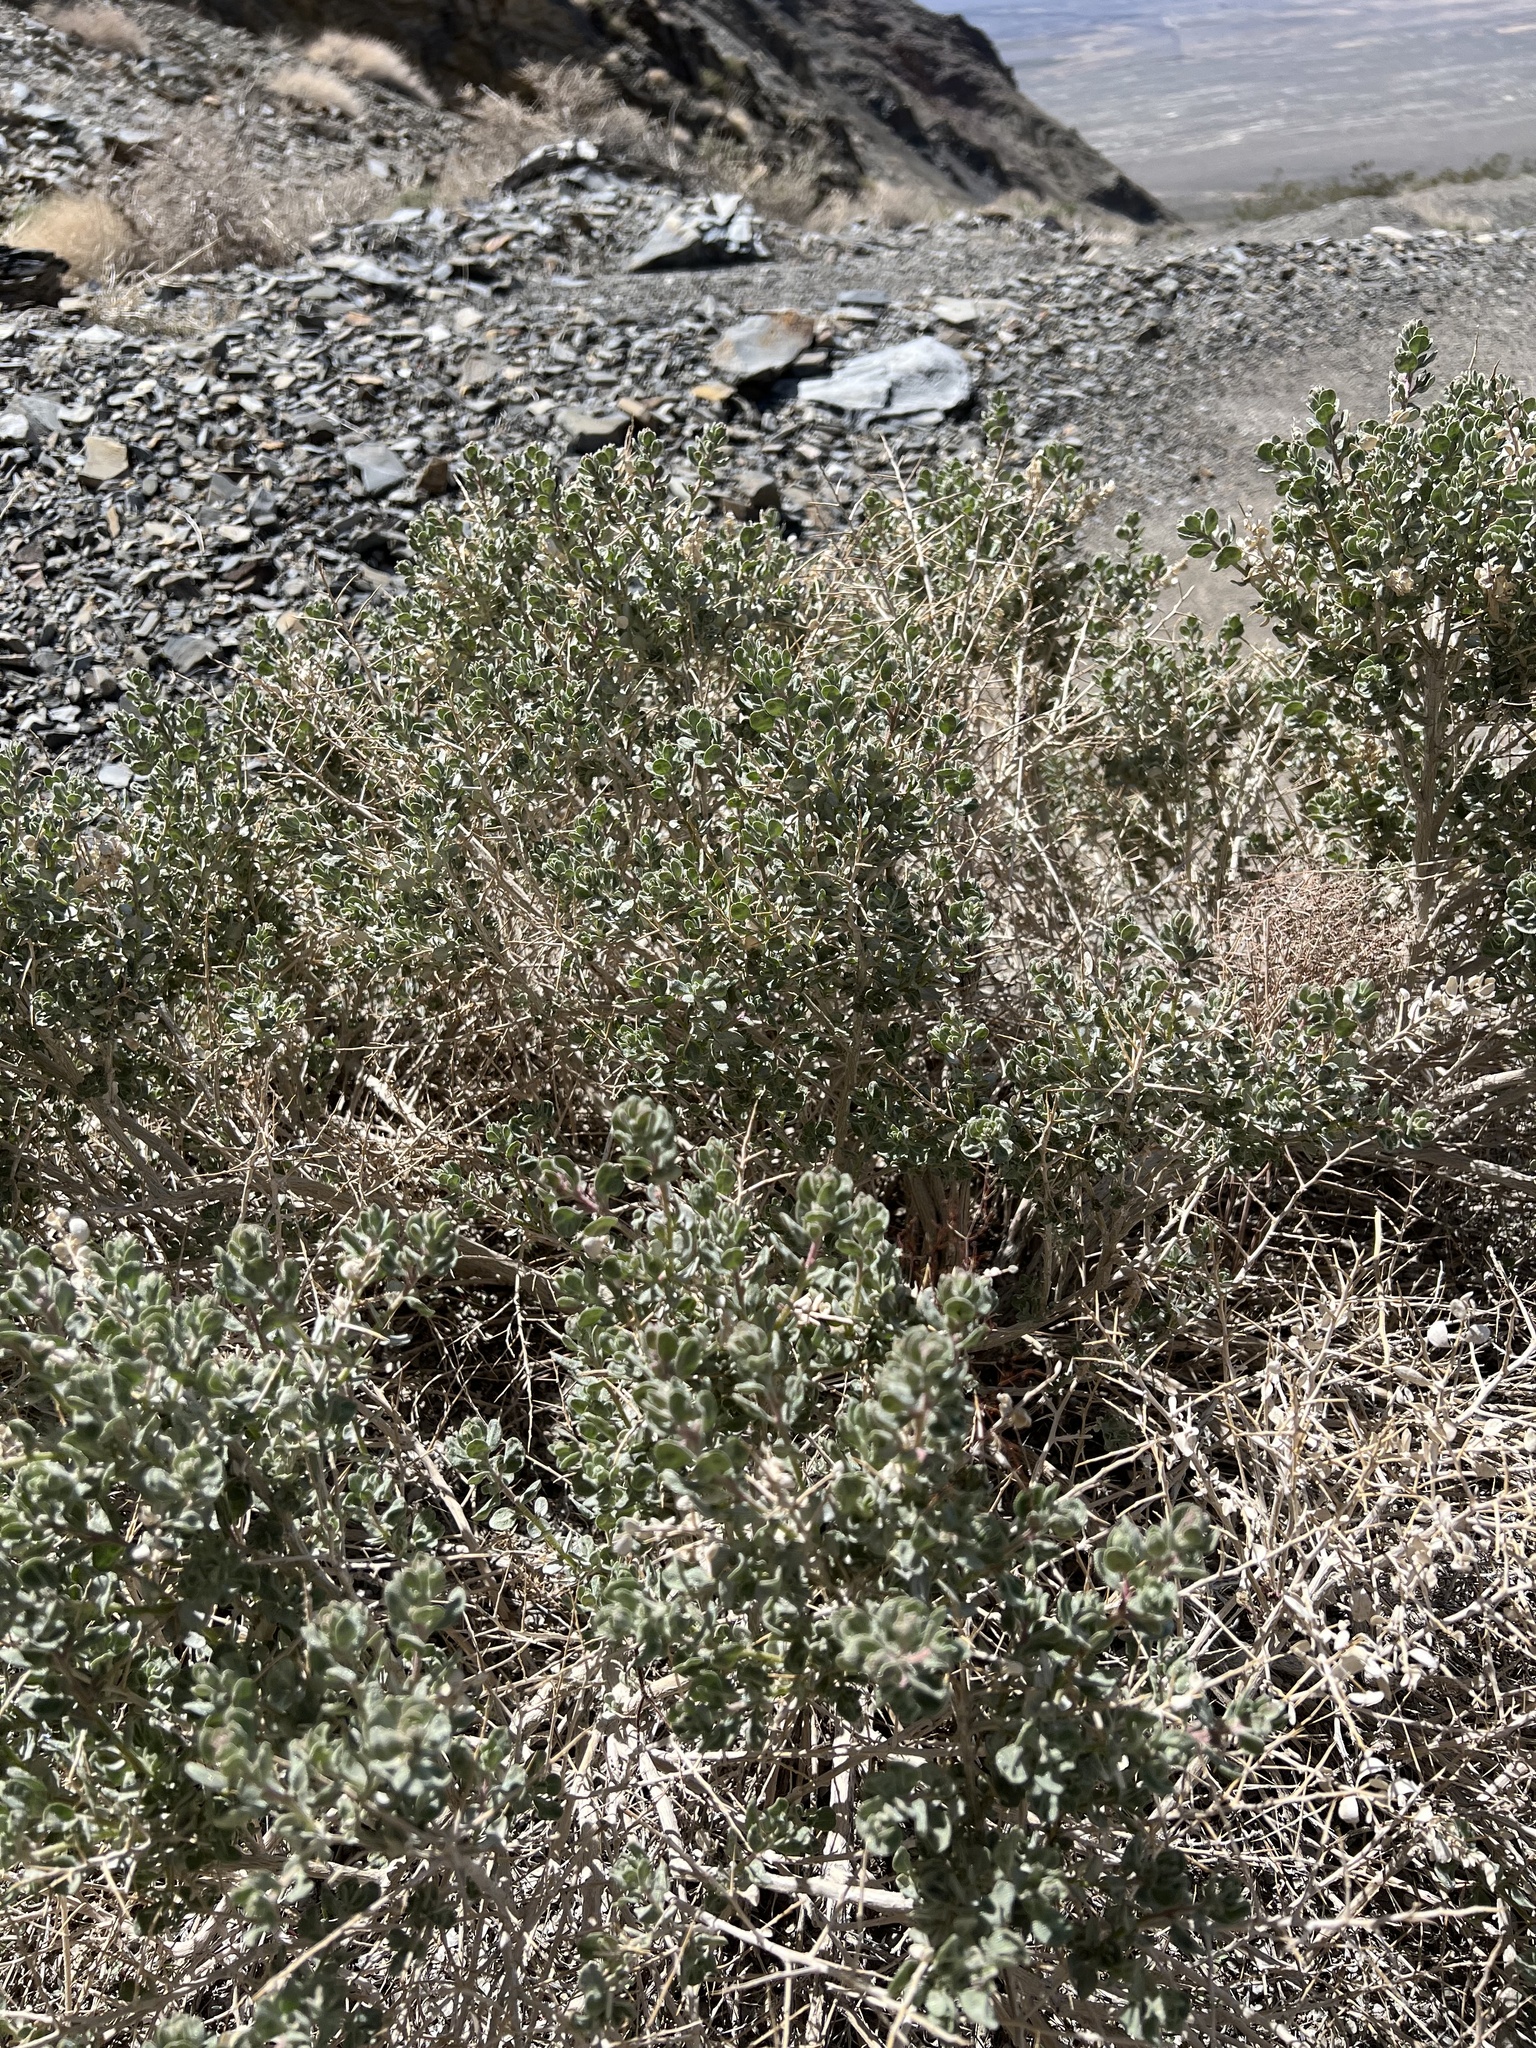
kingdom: Plantae
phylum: Tracheophyta
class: Magnoliopsida
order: Caryophyllales
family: Amaranthaceae
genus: Atriplex
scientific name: Atriplex confertifolia
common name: Shadscale
